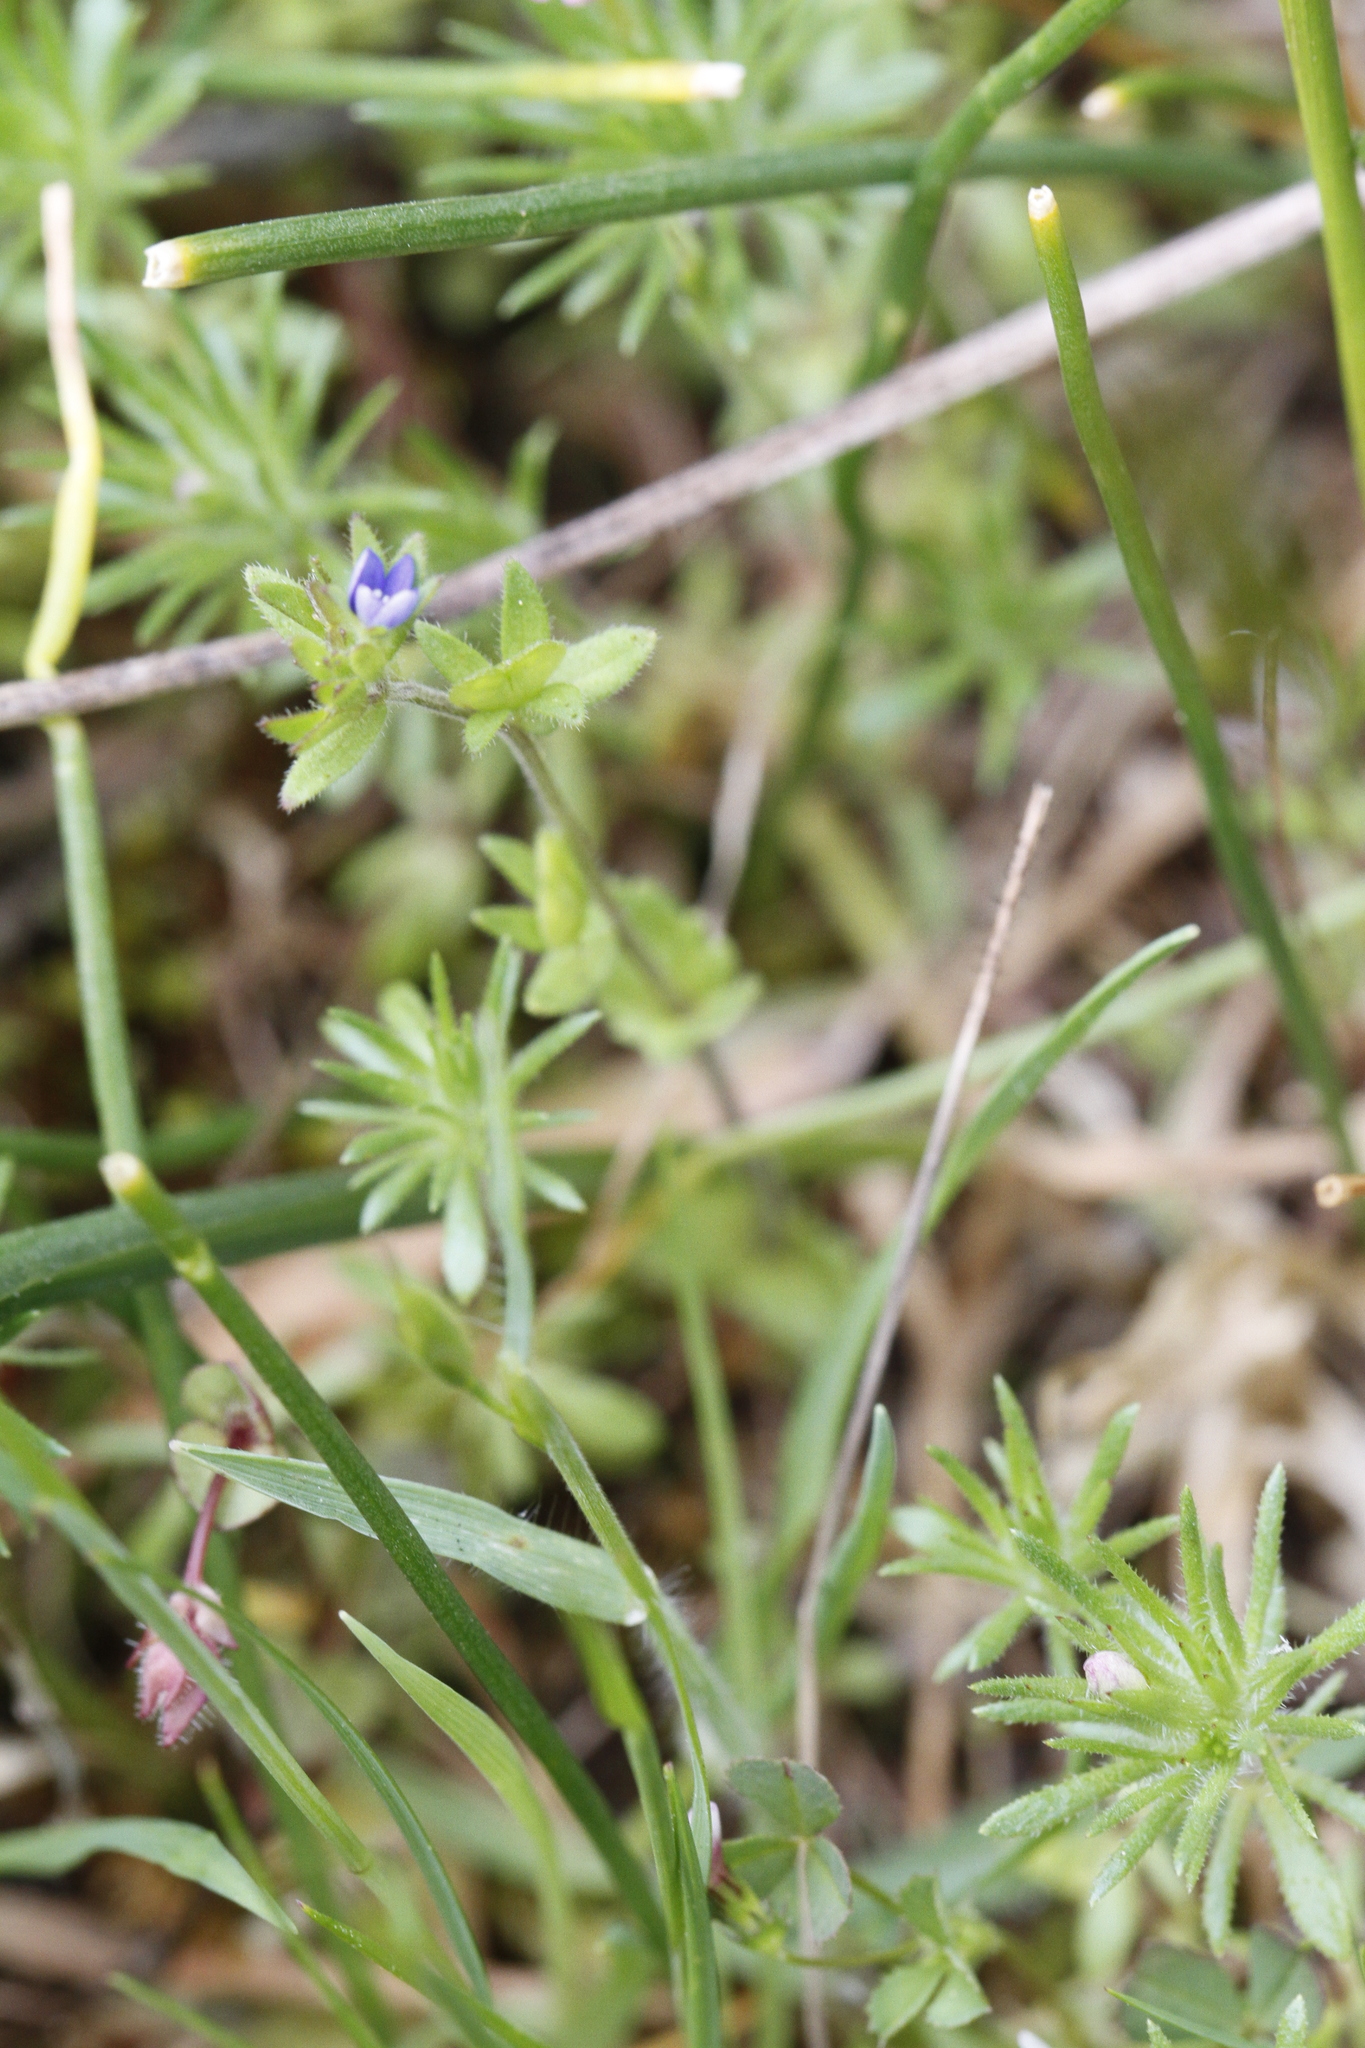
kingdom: Plantae
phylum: Tracheophyta
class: Magnoliopsida
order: Lamiales
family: Plantaginaceae
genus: Veronica
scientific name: Veronica arvensis
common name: Corn speedwell
